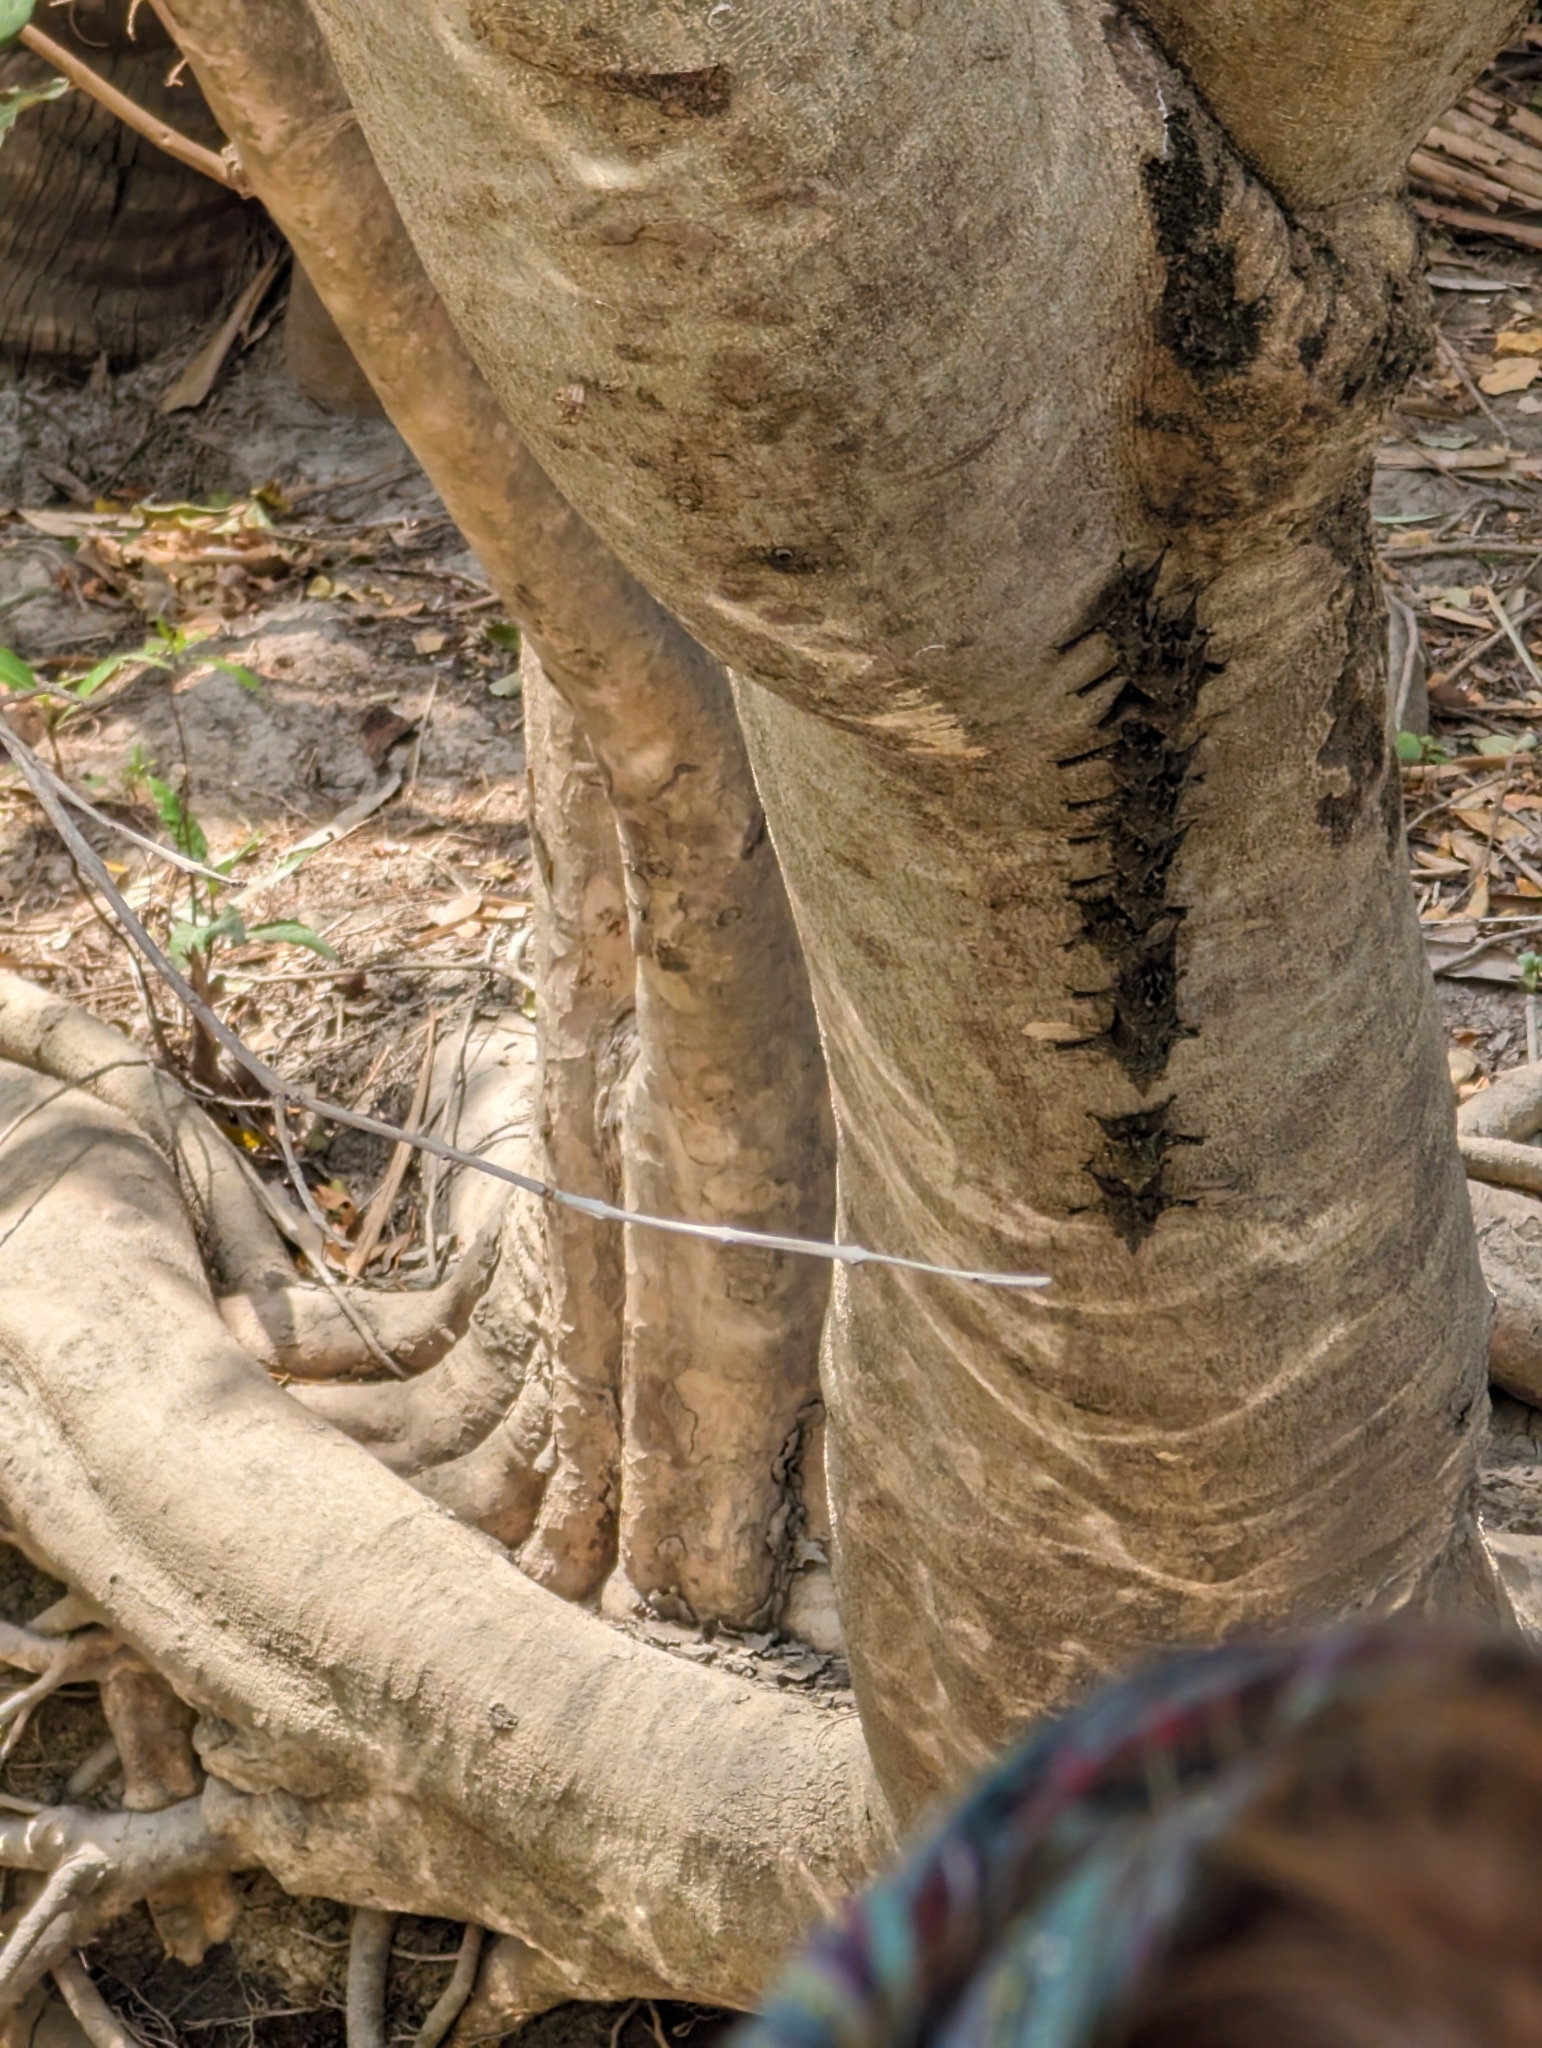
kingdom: Animalia
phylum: Chordata
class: Mammalia
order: Chiroptera
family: Emballonuridae
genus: Rhynchonycteris
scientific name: Rhynchonycteris naso
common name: Proboscis bat
